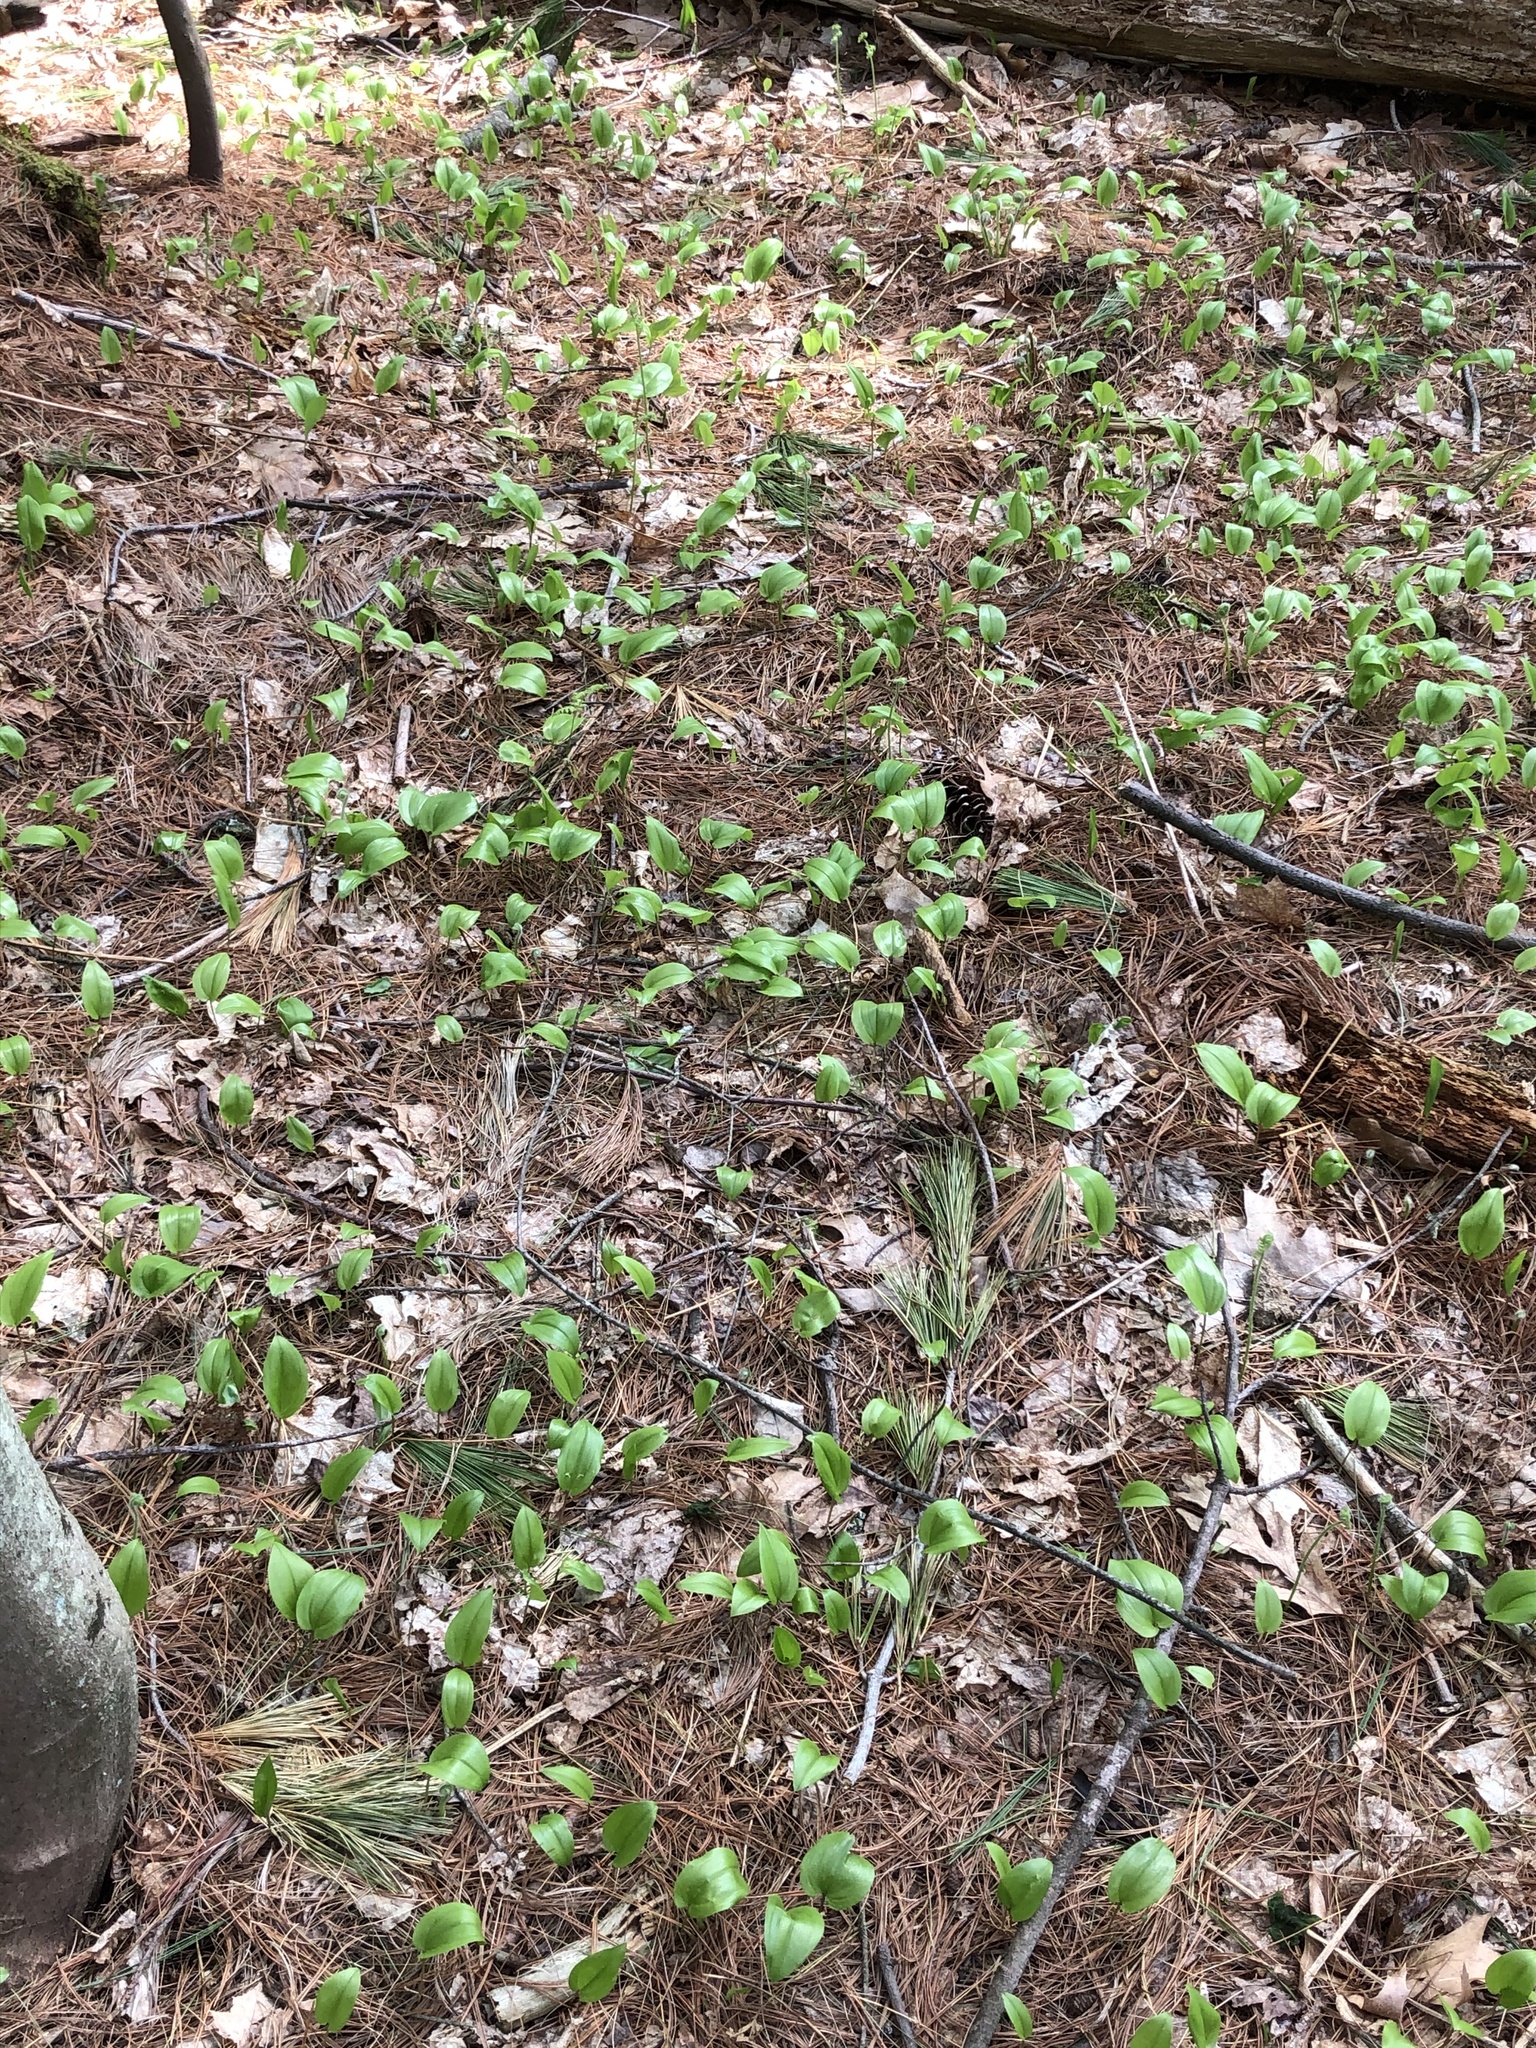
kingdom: Plantae
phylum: Tracheophyta
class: Liliopsida
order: Asparagales
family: Asparagaceae
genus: Maianthemum
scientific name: Maianthemum canadense
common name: False lily-of-the-valley
